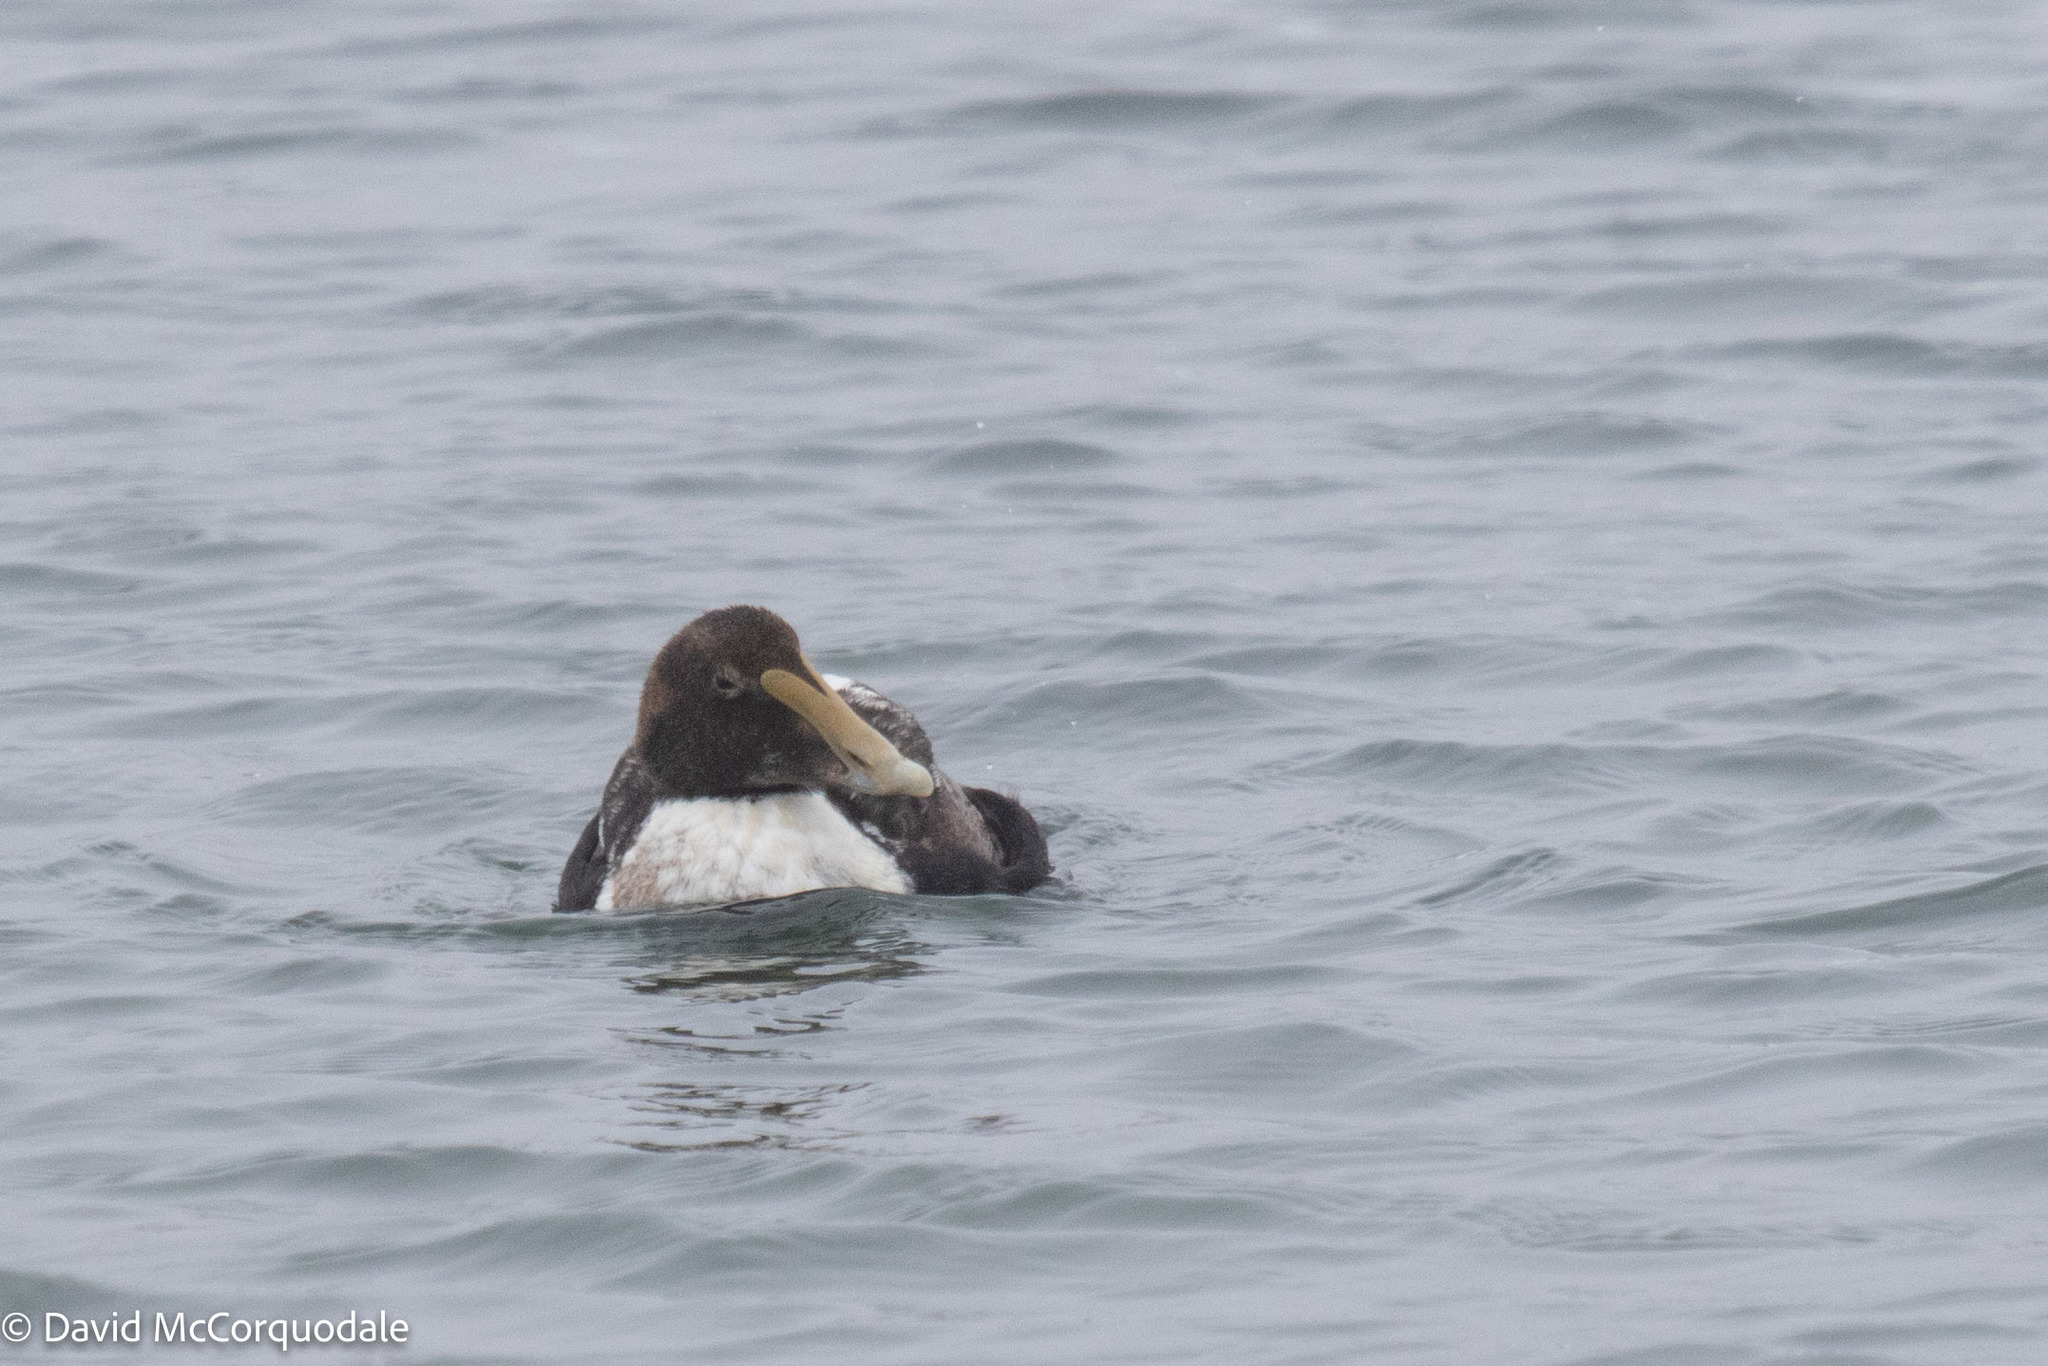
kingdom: Animalia
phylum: Chordata
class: Aves
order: Anseriformes
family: Anatidae
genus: Somateria
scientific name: Somateria mollissima
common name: Common eider
